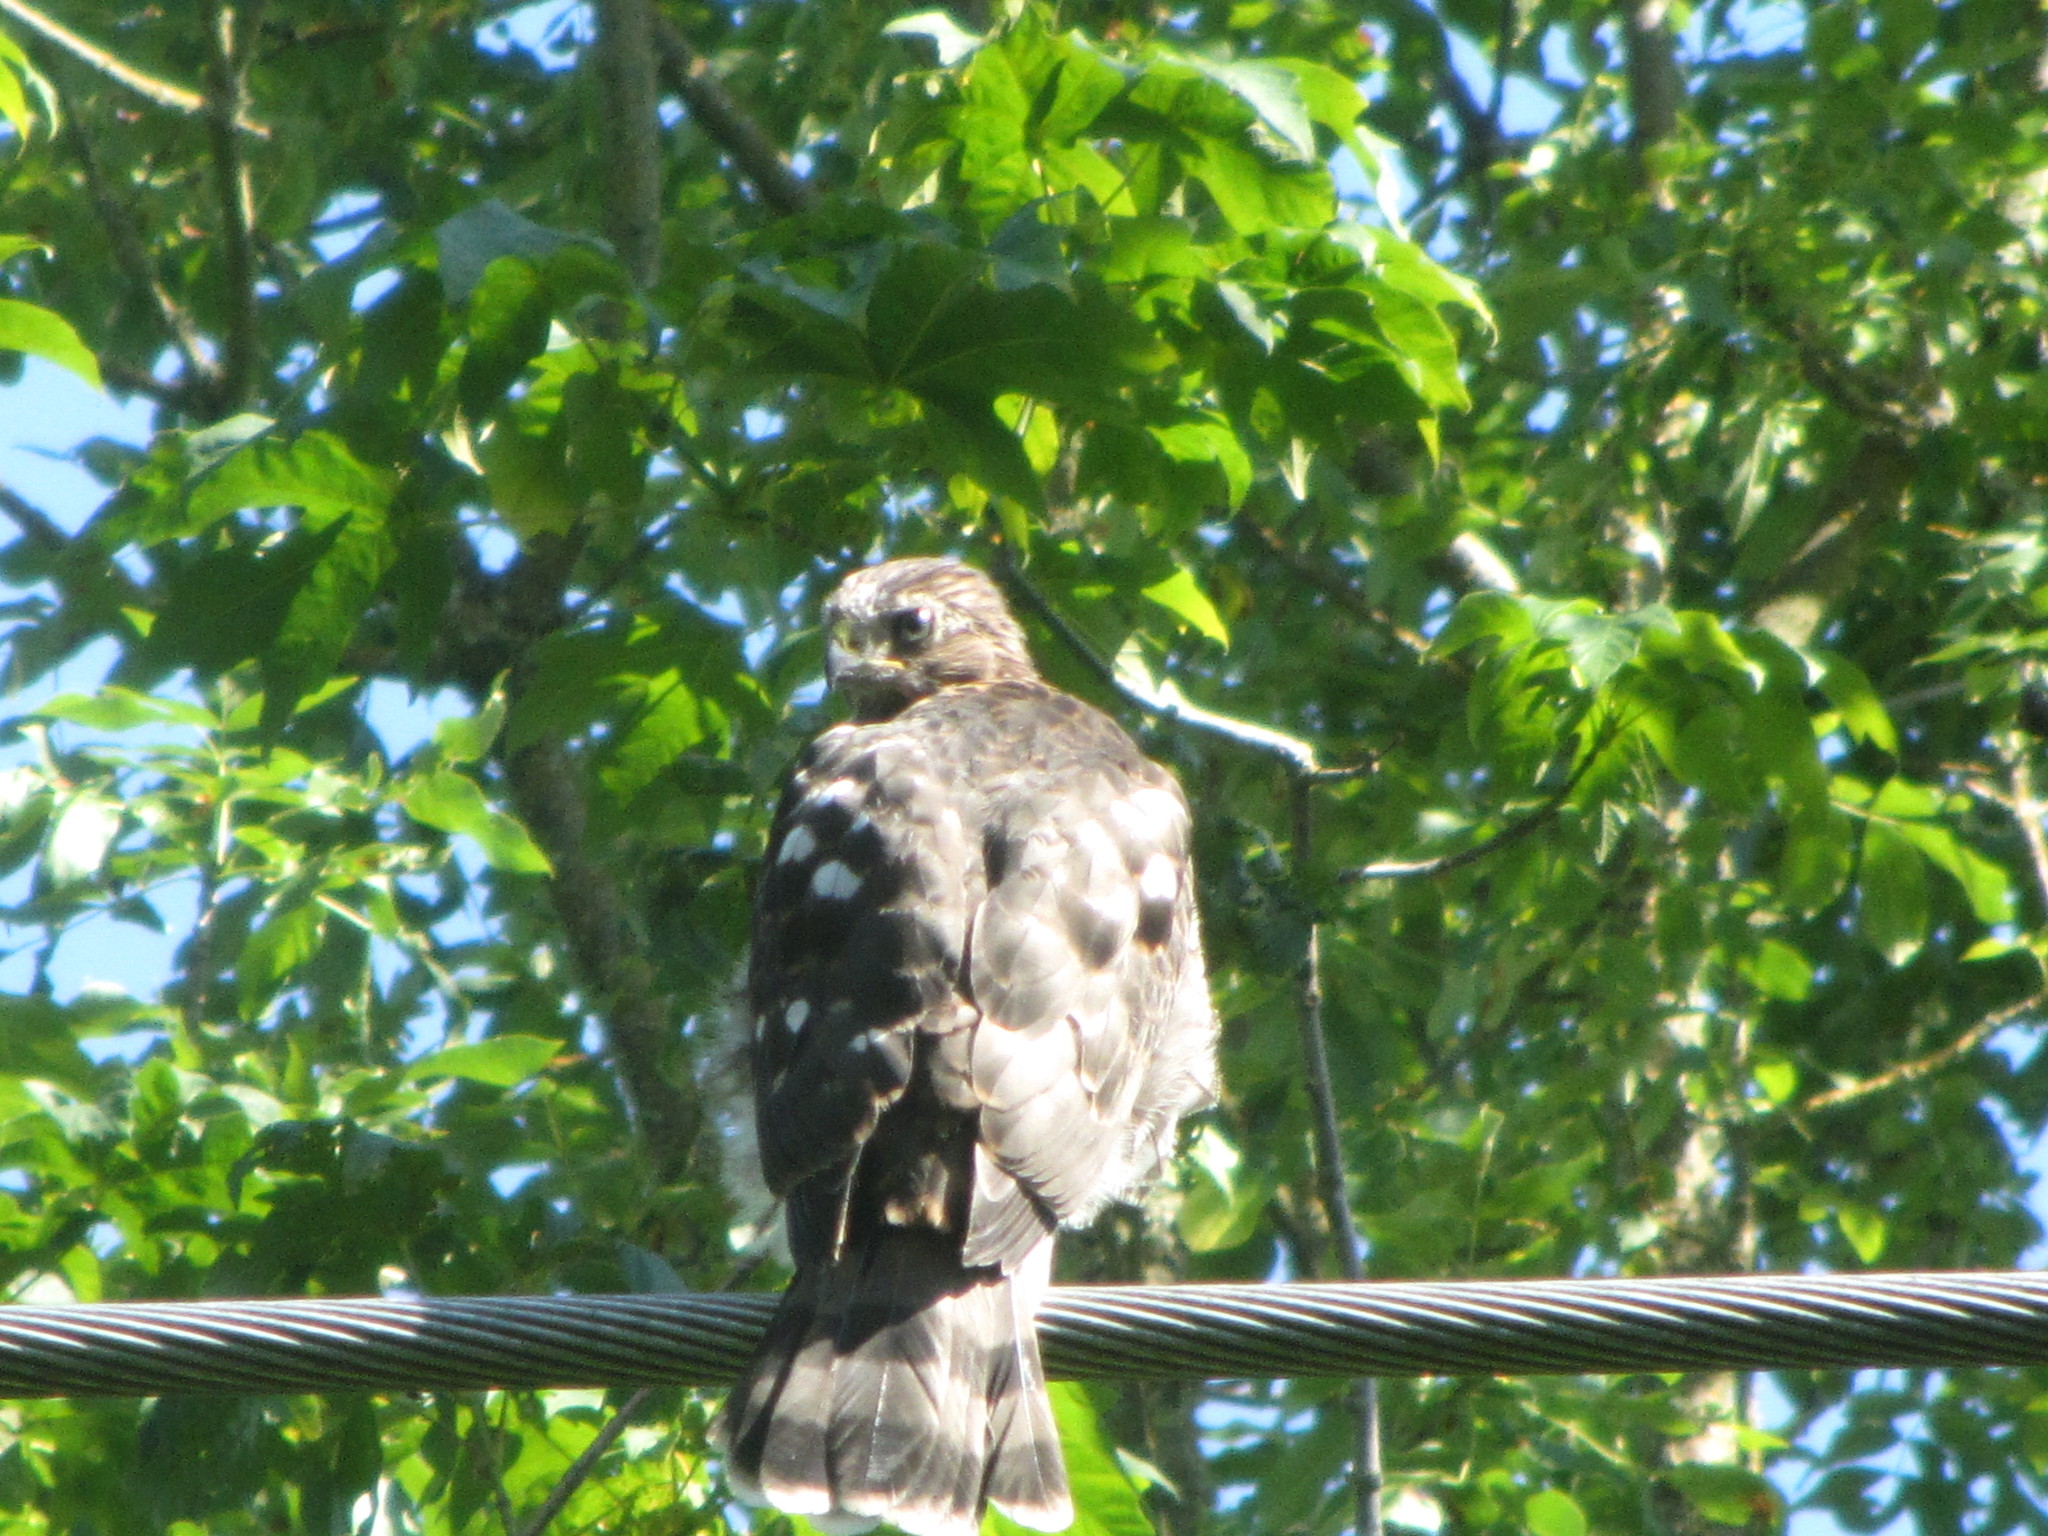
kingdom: Animalia
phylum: Chordata
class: Aves
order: Accipitriformes
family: Accipitridae
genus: Accipiter
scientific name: Accipiter cooperii
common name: Cooper's hawk
